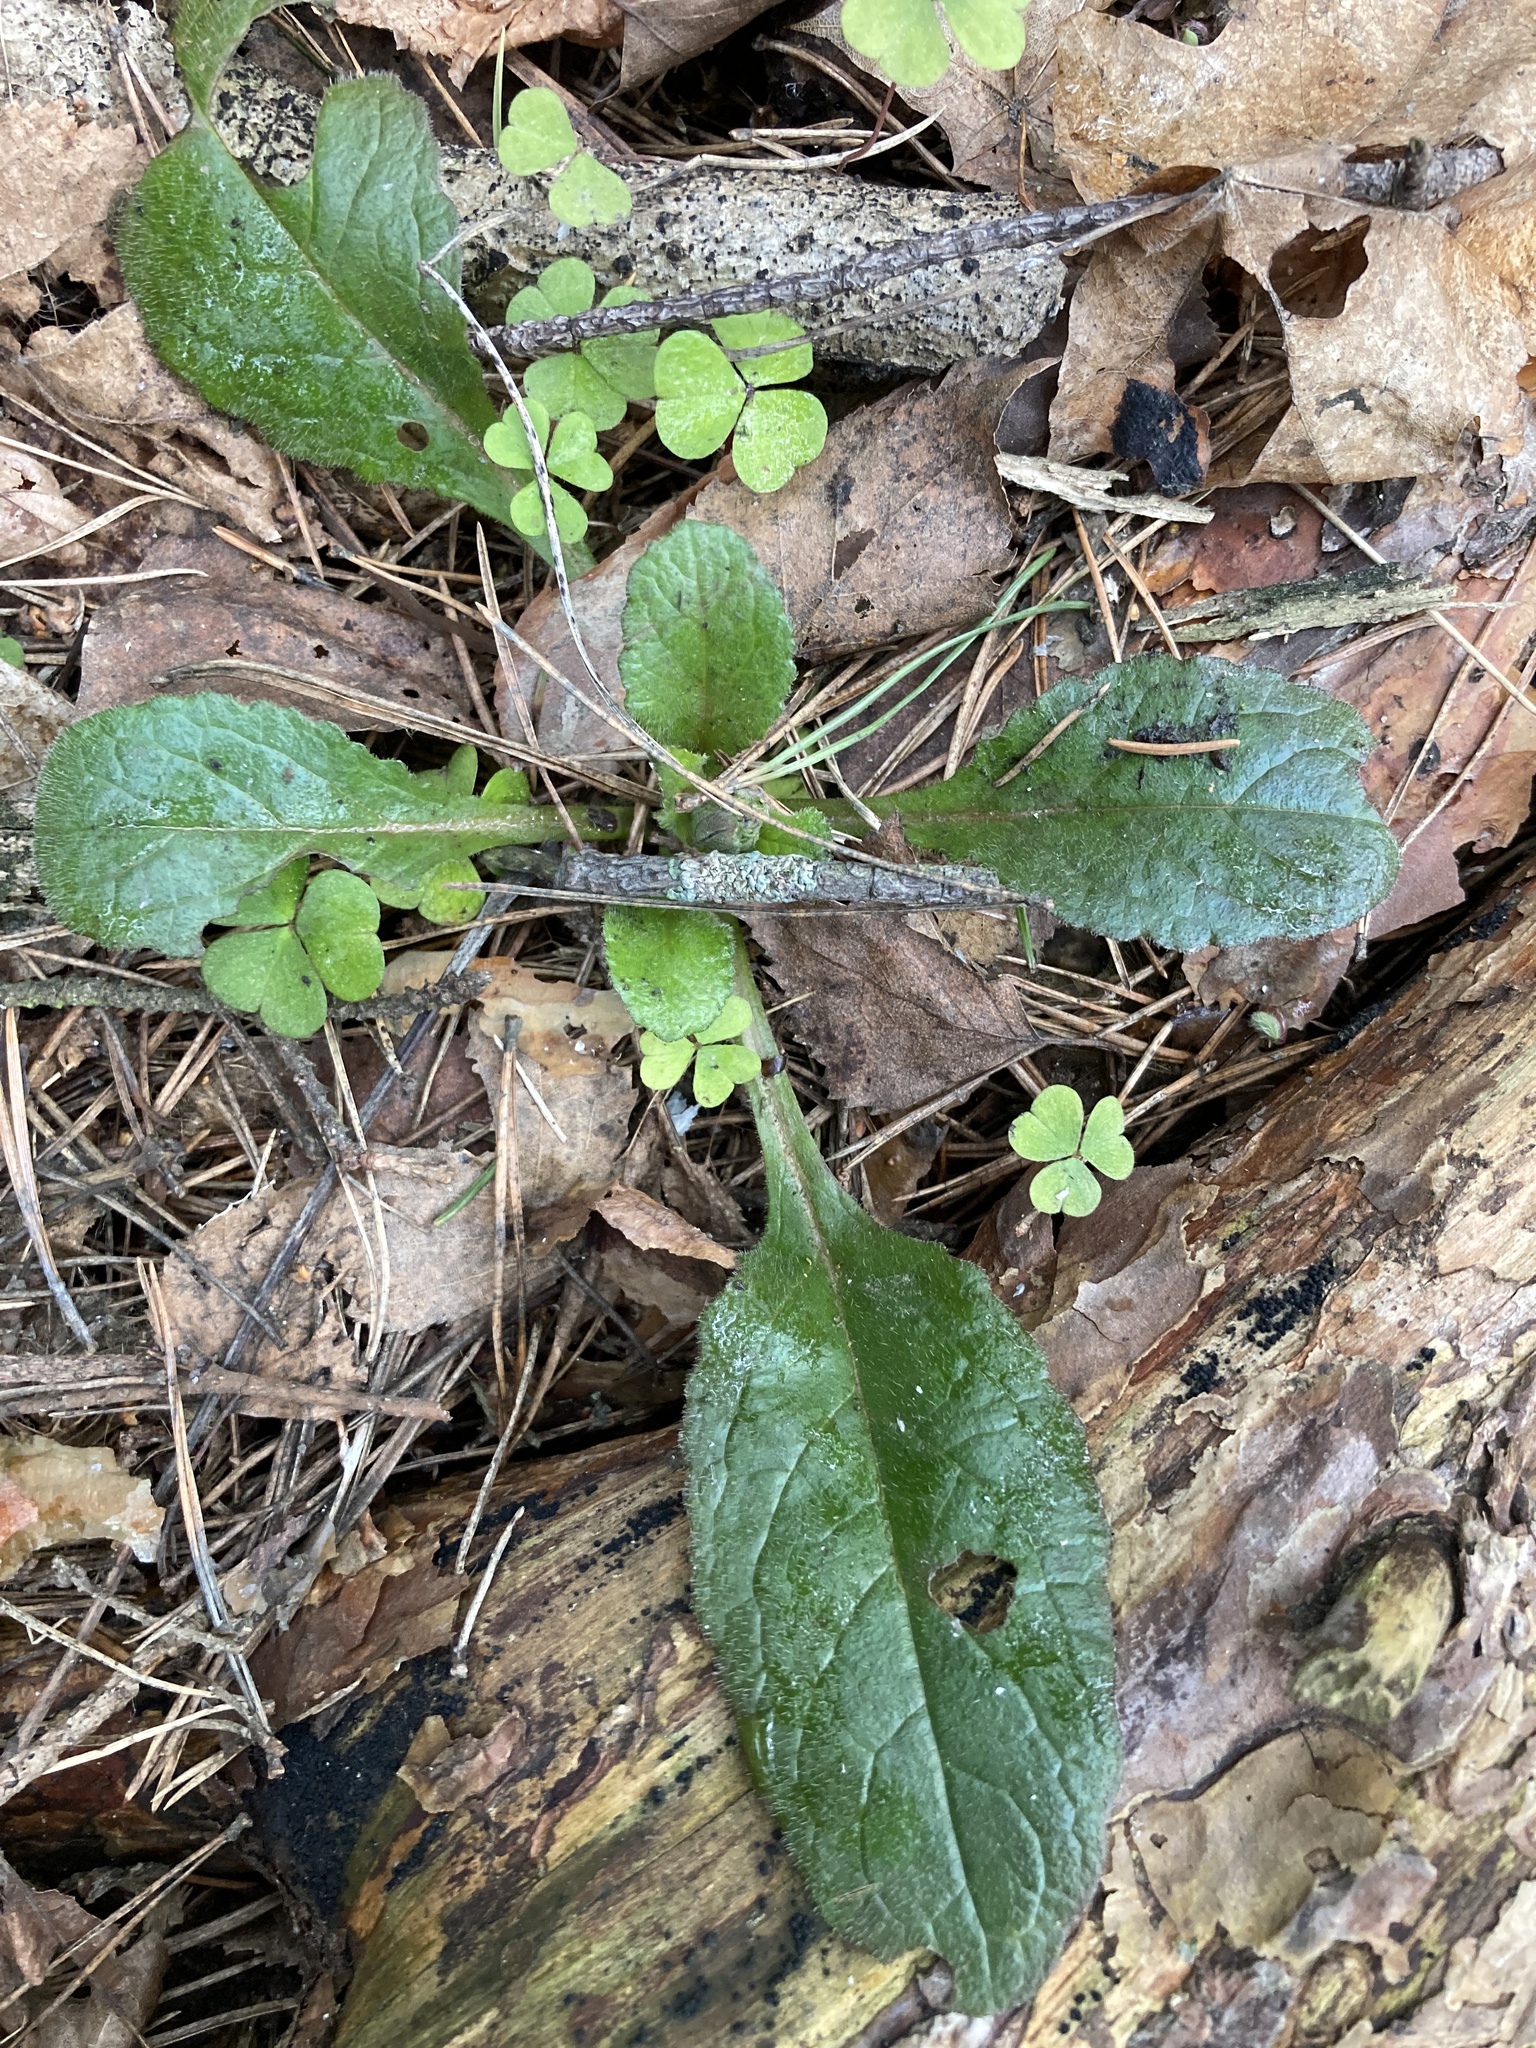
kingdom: Plantae
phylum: Tracheophyta
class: Magnoliopsida
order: Lamiales
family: Lamiaceae
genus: Ajuga
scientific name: Ajuga reptans
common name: Bugle
